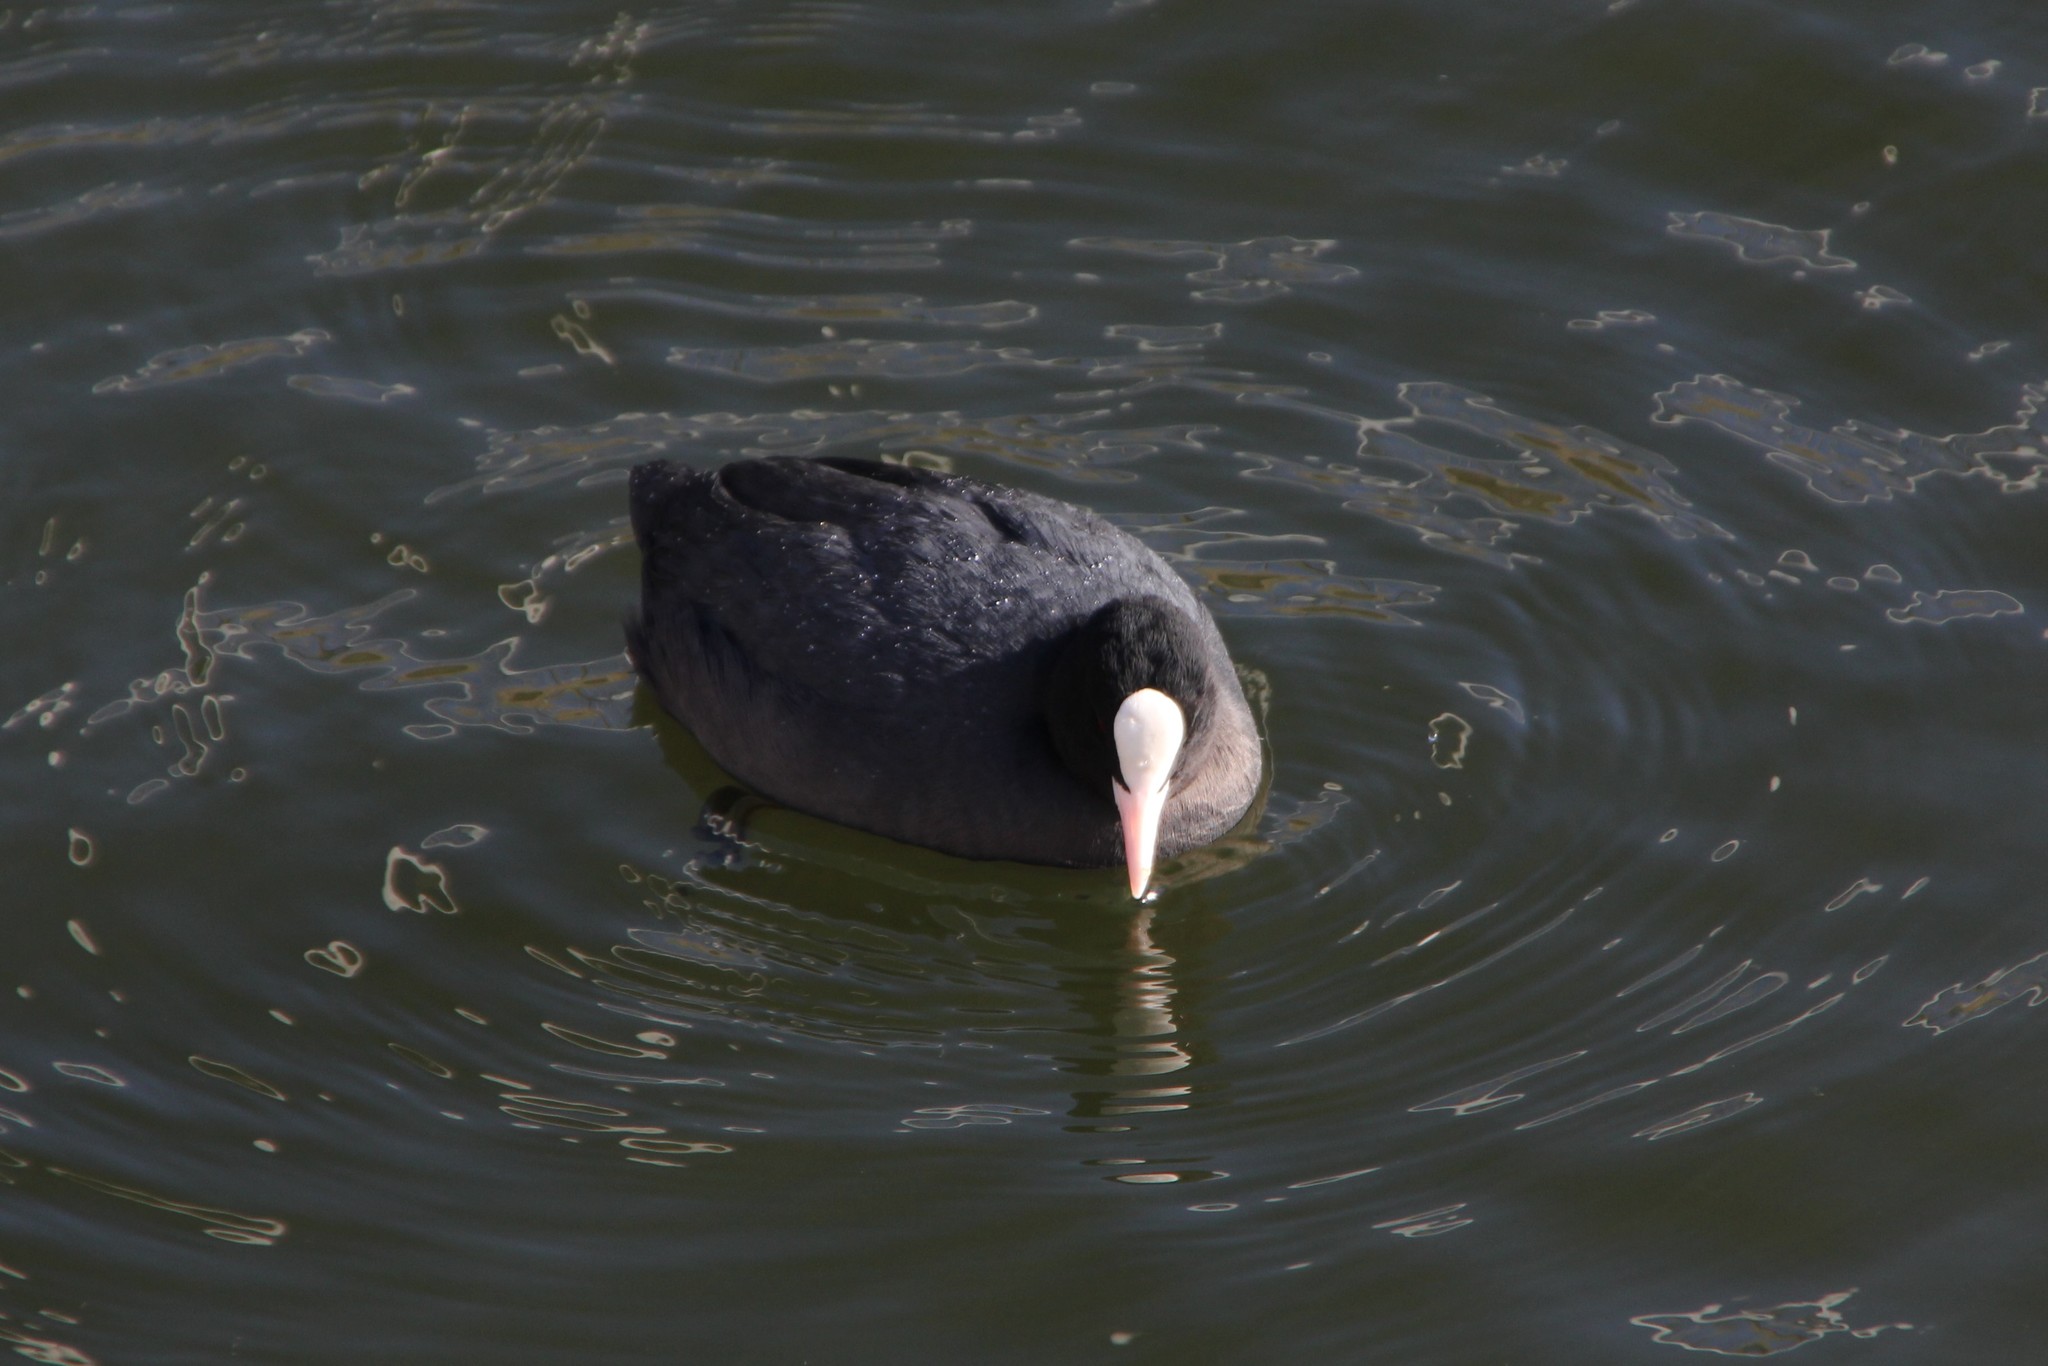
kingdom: Animalia
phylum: Chordata
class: Aves
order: Gruiformes
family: Rallidae
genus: Fulica
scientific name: Fulica atra
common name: Eurasian coot
